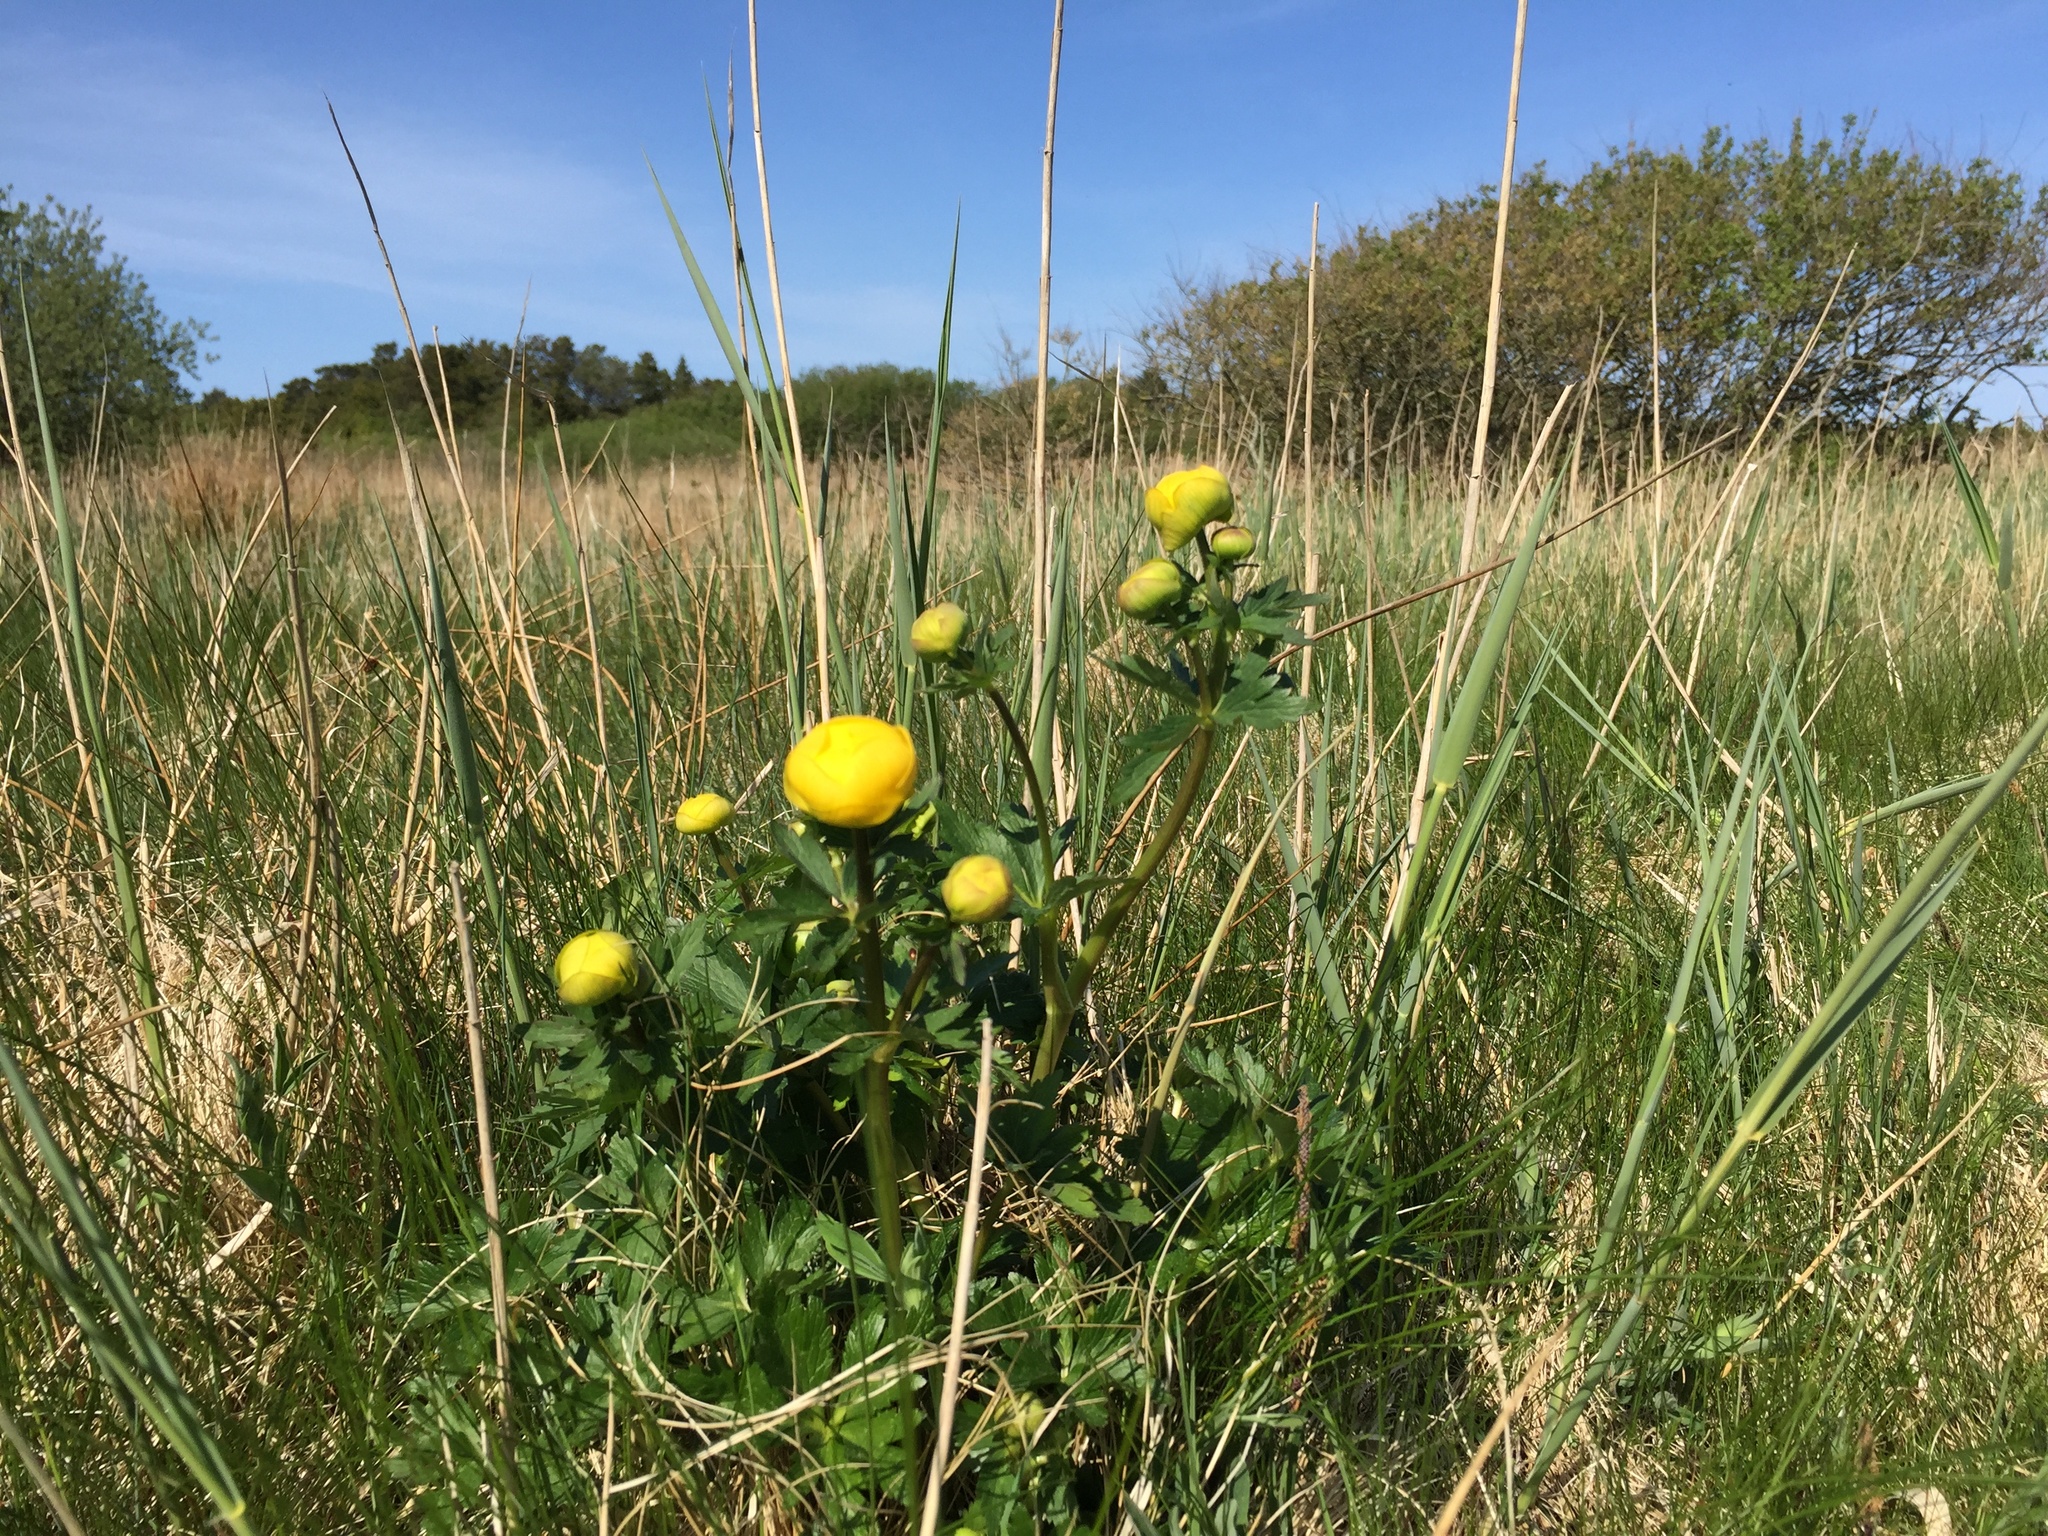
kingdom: Plantae
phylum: Tracheophyta
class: Magnoliopsida
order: Ranunculales
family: Ranunculaceae
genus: Trollius
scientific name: Trollius europaeus
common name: European globeflower
